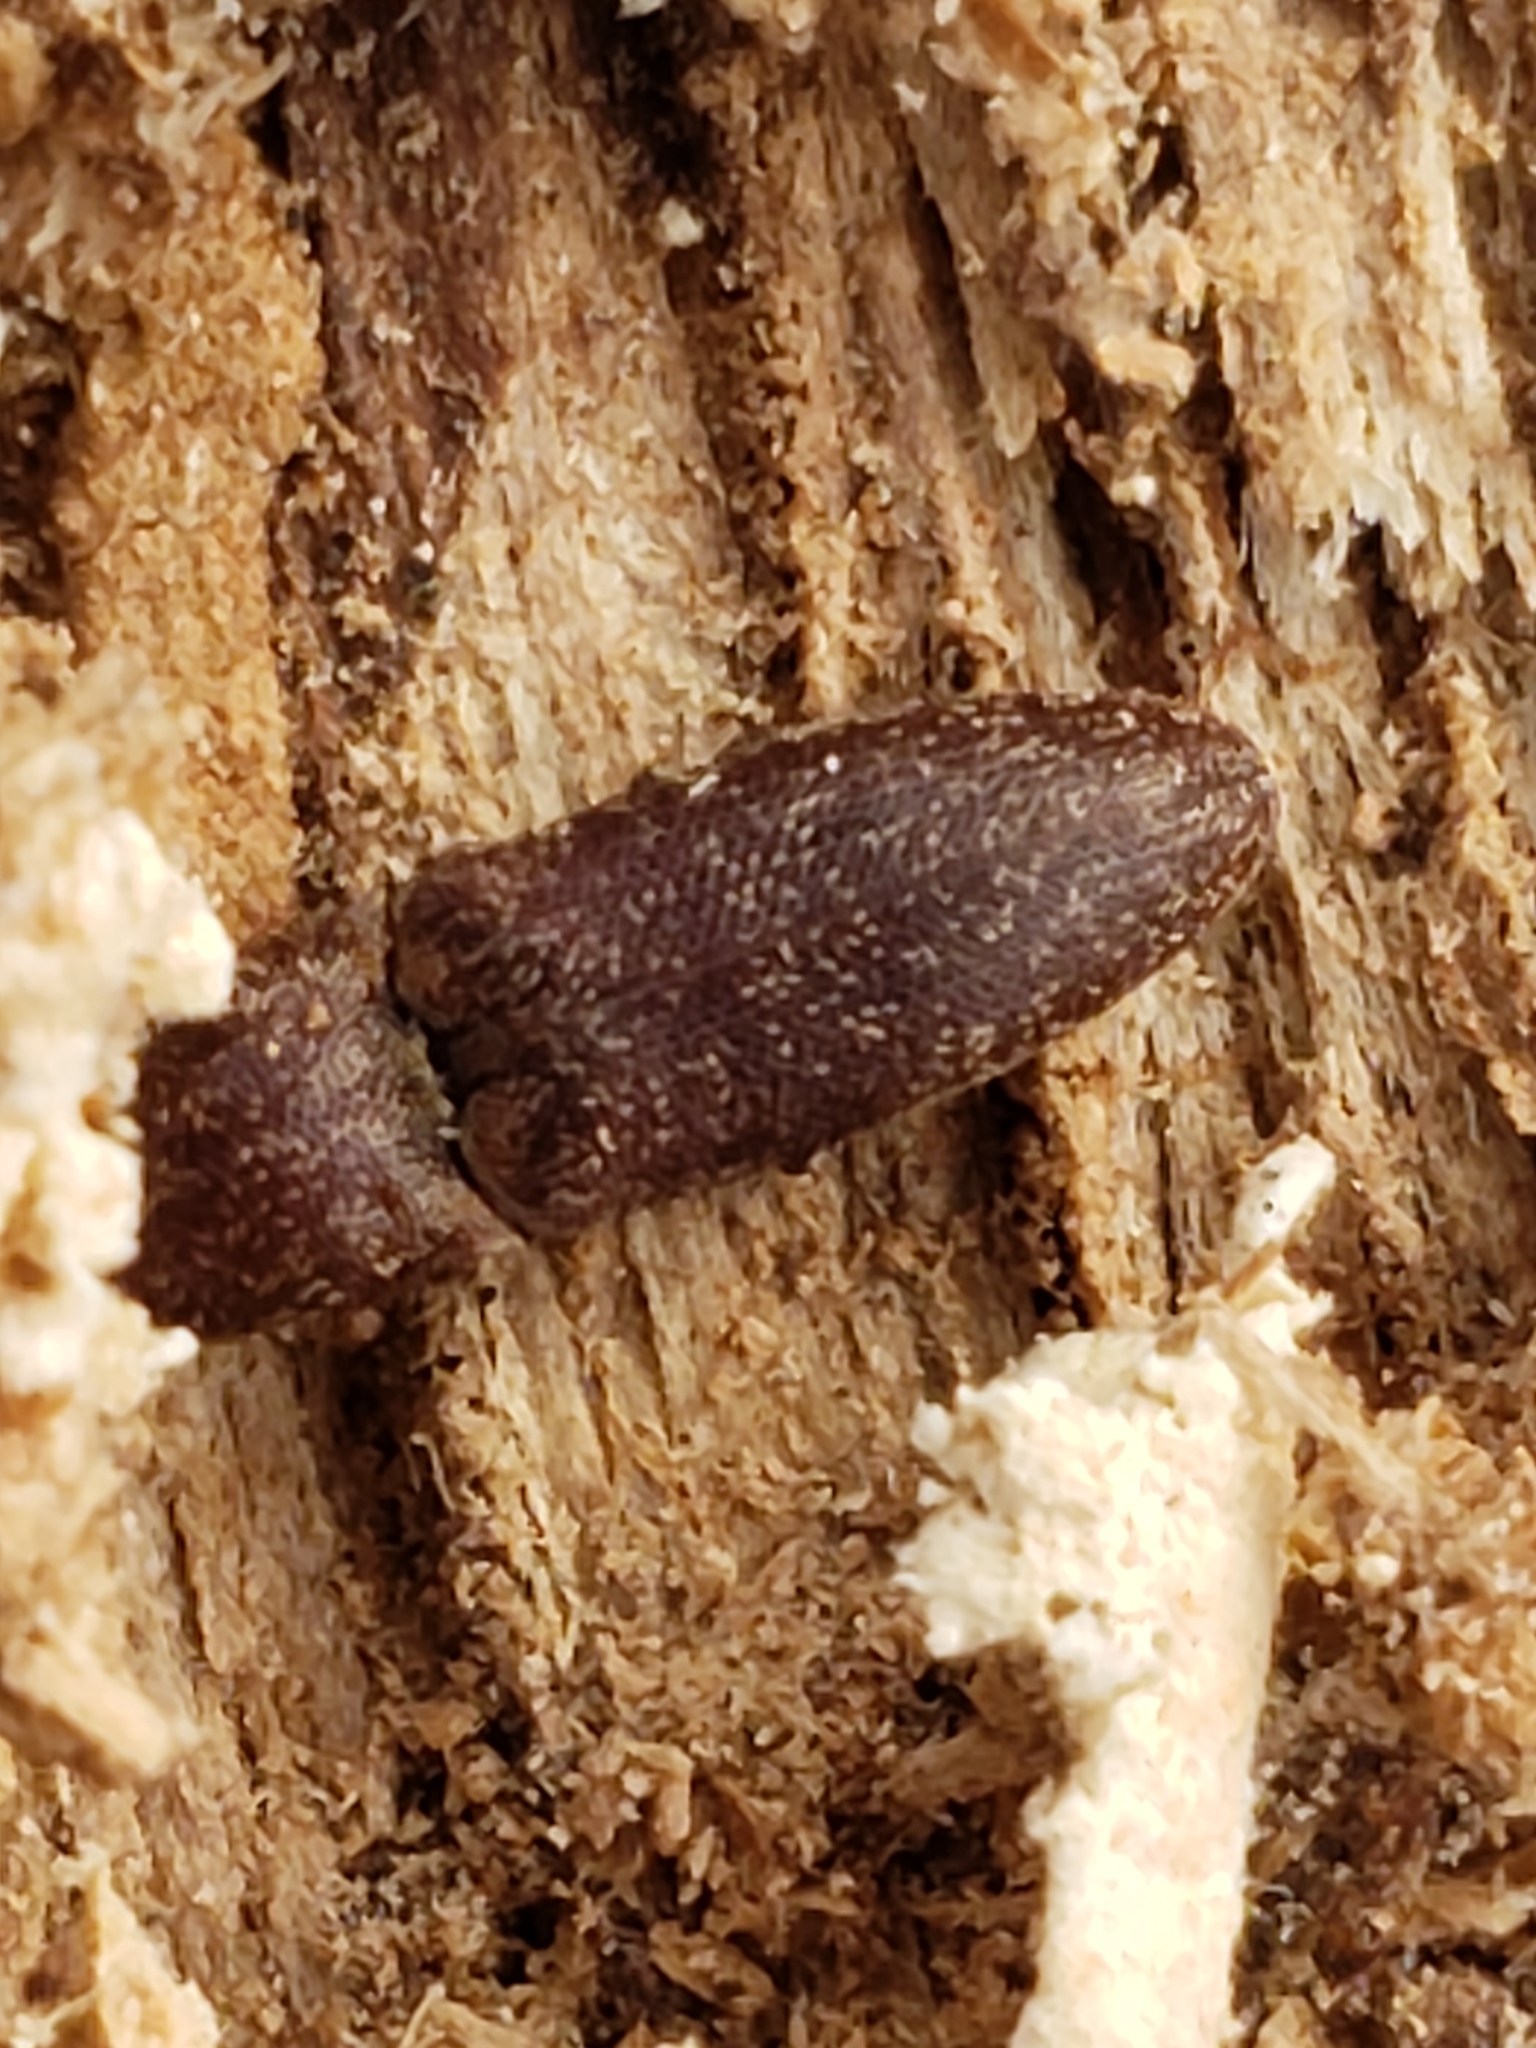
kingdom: Animalia
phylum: Arthropoda
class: Insecta
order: Coleoptera
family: Elateridae
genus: Lacon
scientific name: Lacon impressicollis
